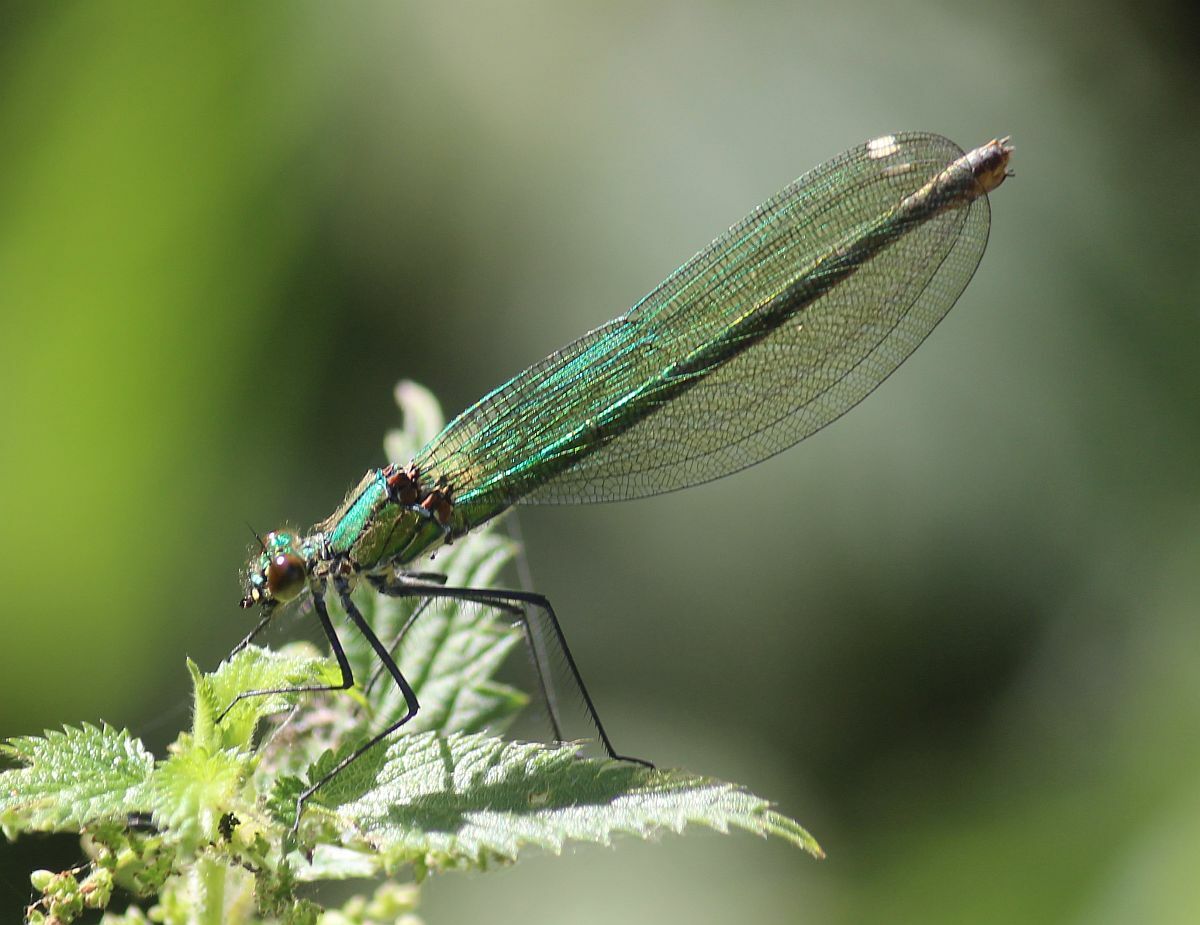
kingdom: Animalia
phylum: Arthropoda
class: Insecta
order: Odonata
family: Calopterygidae
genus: Calopteryx
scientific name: Calopteryx splendens
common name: Banded demoiselle
